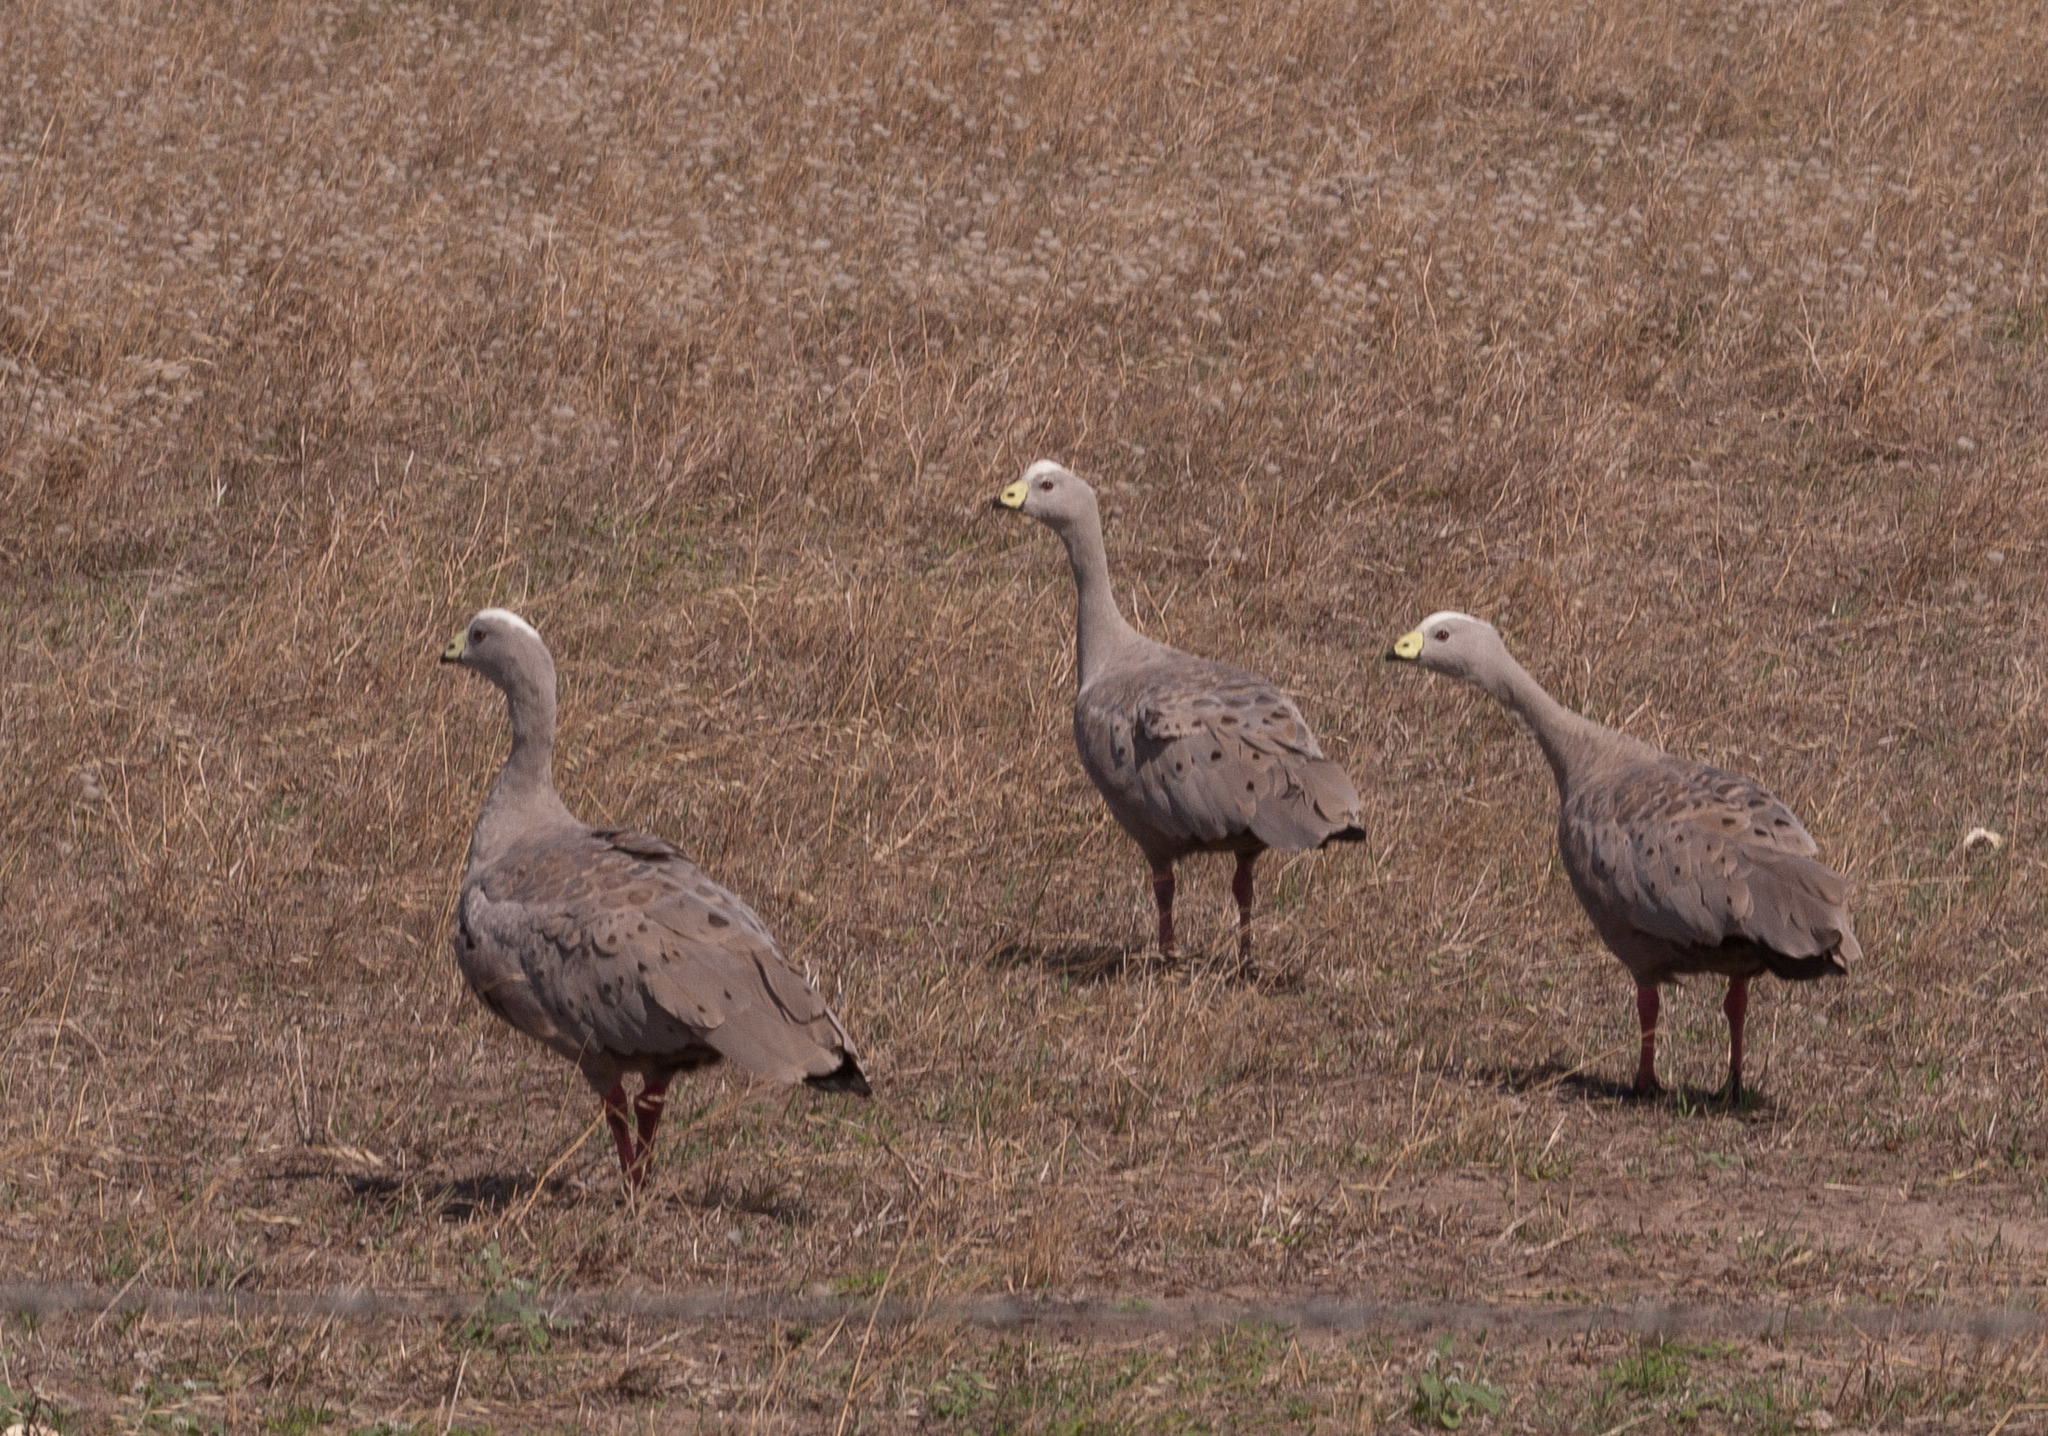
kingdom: Animalia
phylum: Chordata
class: Aves
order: Anseriformes
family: Anatidae
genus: Cereopsis
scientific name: Cereopsis novaehollandiae
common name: Cape barren goose
